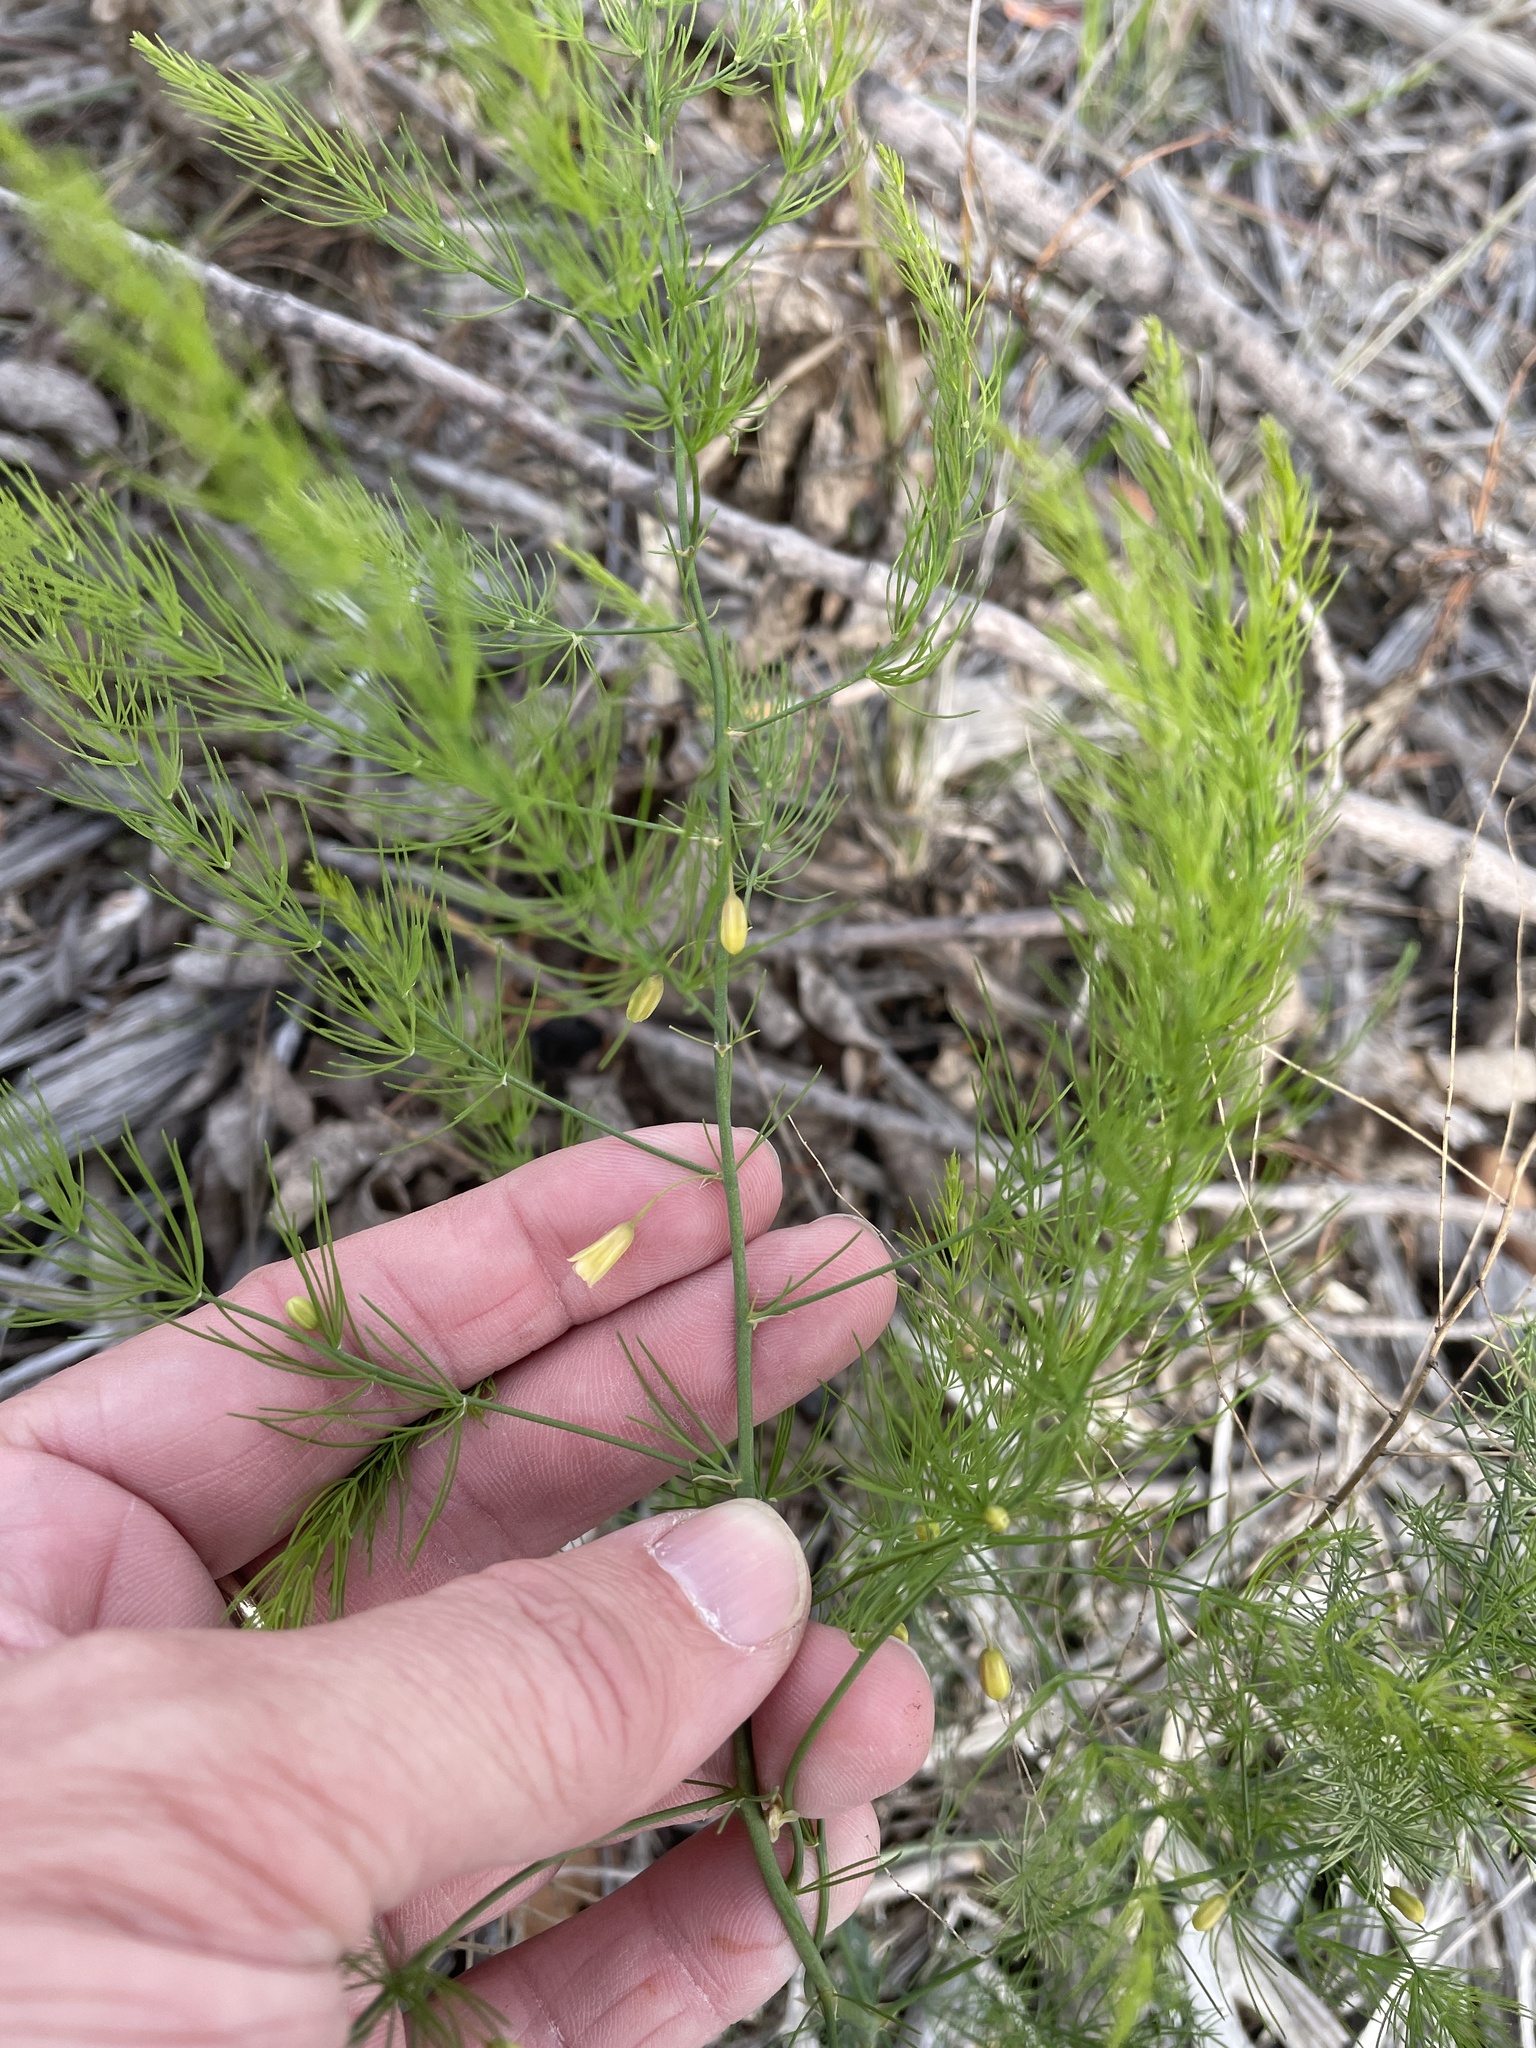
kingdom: Plantae
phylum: Tracheophyta
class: Liliopsida
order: Asparagales
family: Asparagaceae
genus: Asparagus
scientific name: Asparagus officinalis
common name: Garden asparagus
